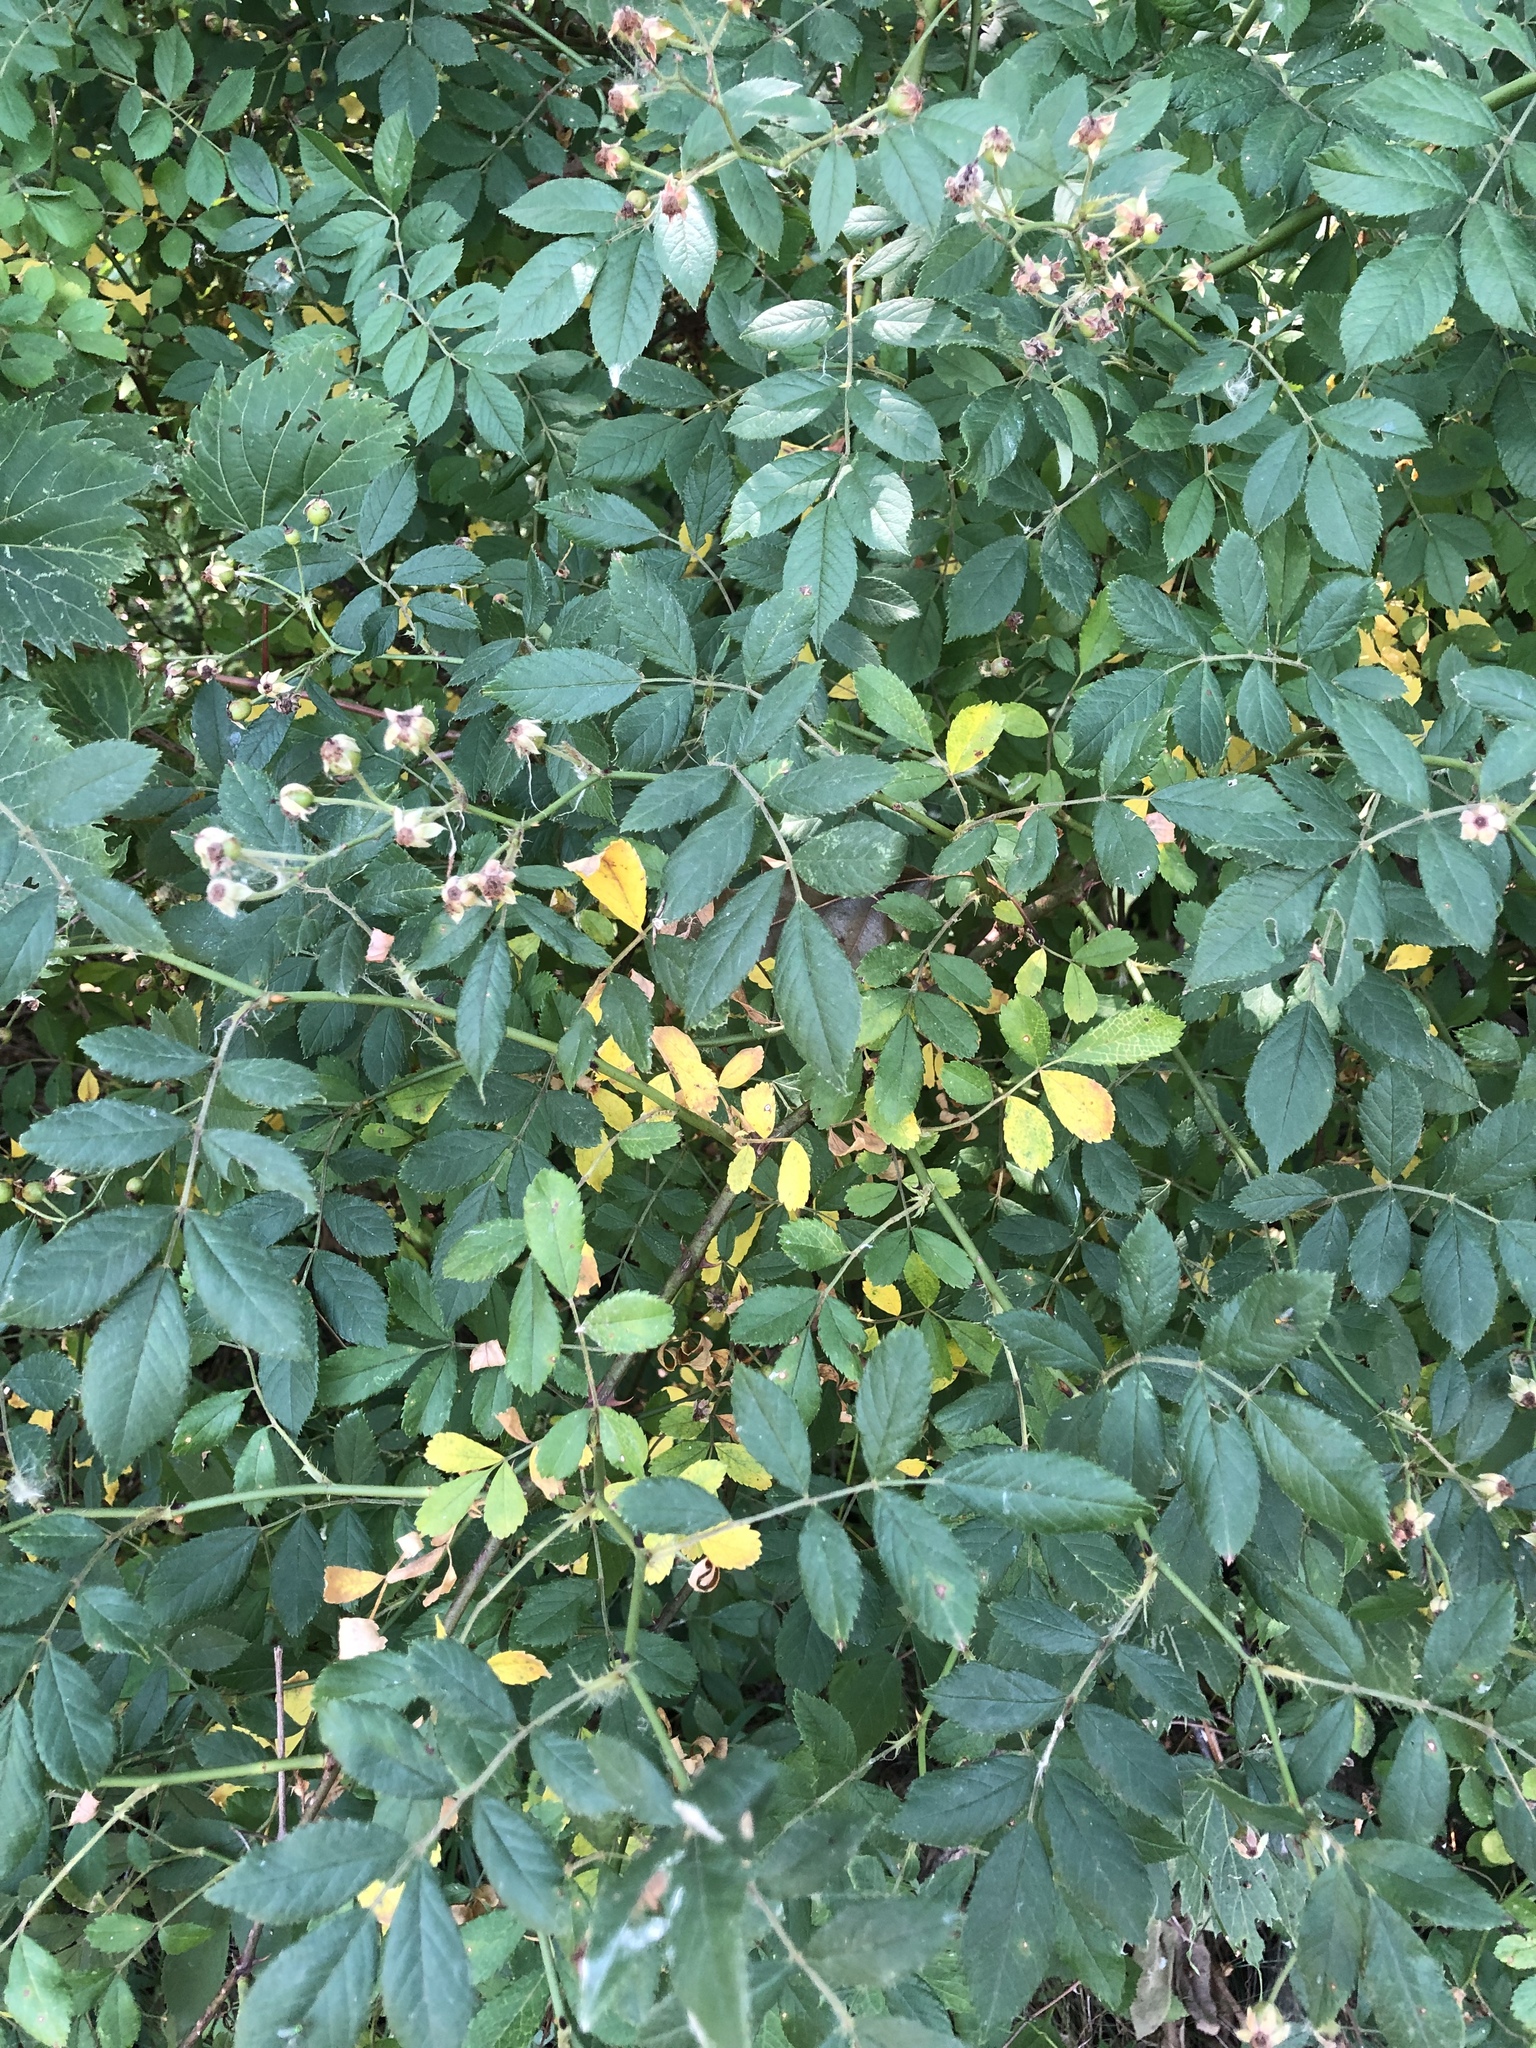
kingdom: Plantae
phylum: Tracheophyta
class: Magnoliopsida
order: Rosales
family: Rosaceae
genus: Rosa
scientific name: Rosa multiflora
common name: Multiflora rose
